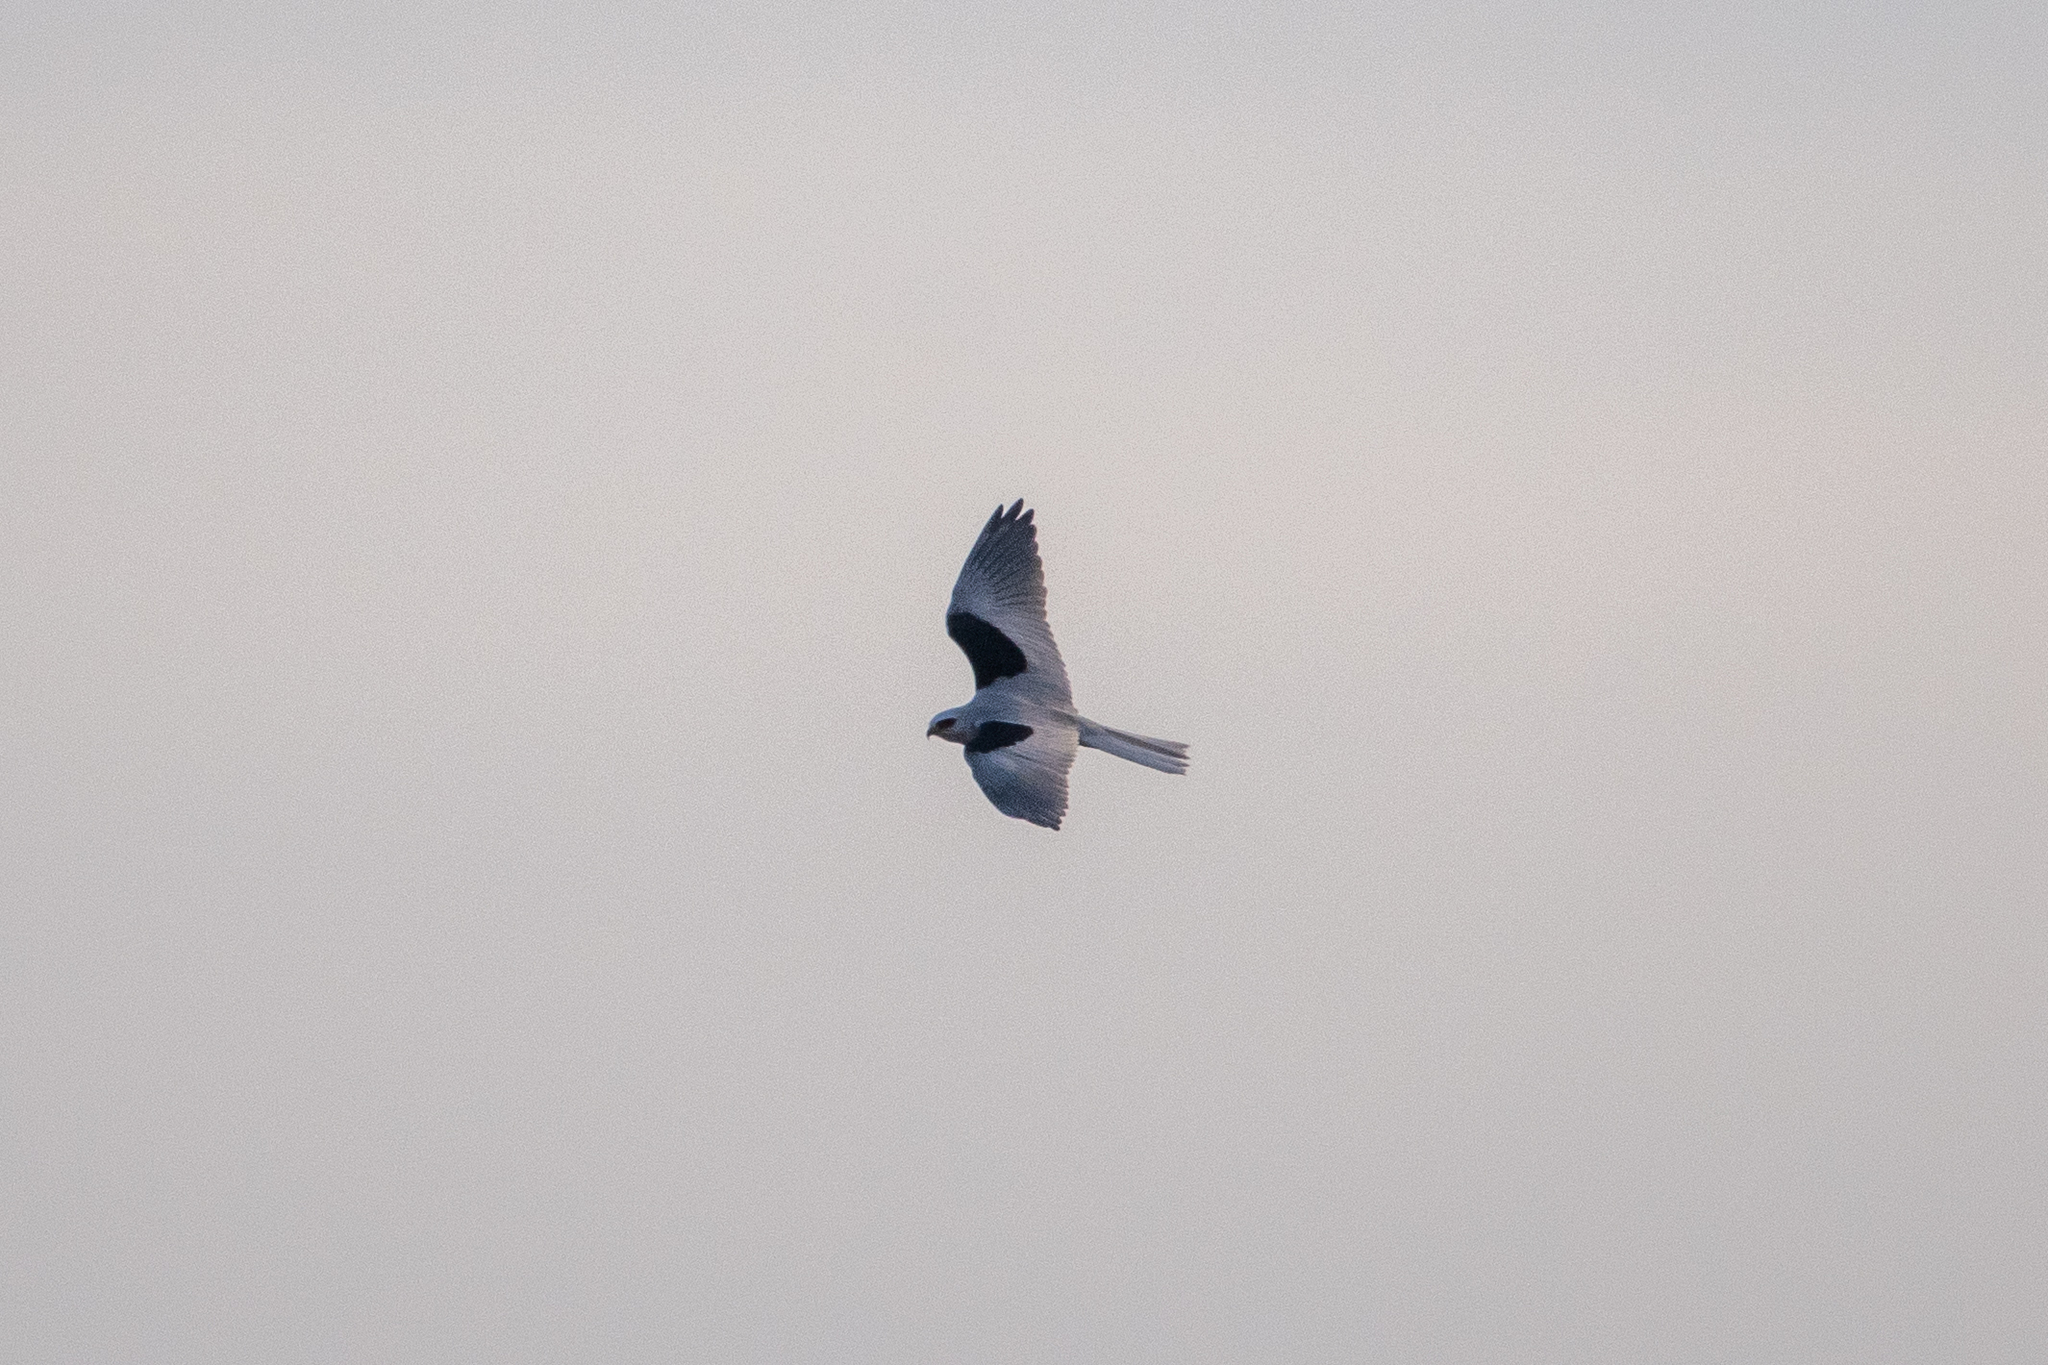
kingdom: Animalia
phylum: Chordata
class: Aves
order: Accipitriformes
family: Accipitridae
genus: Elanus
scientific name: Elanus leucurus
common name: White-tailed kite
